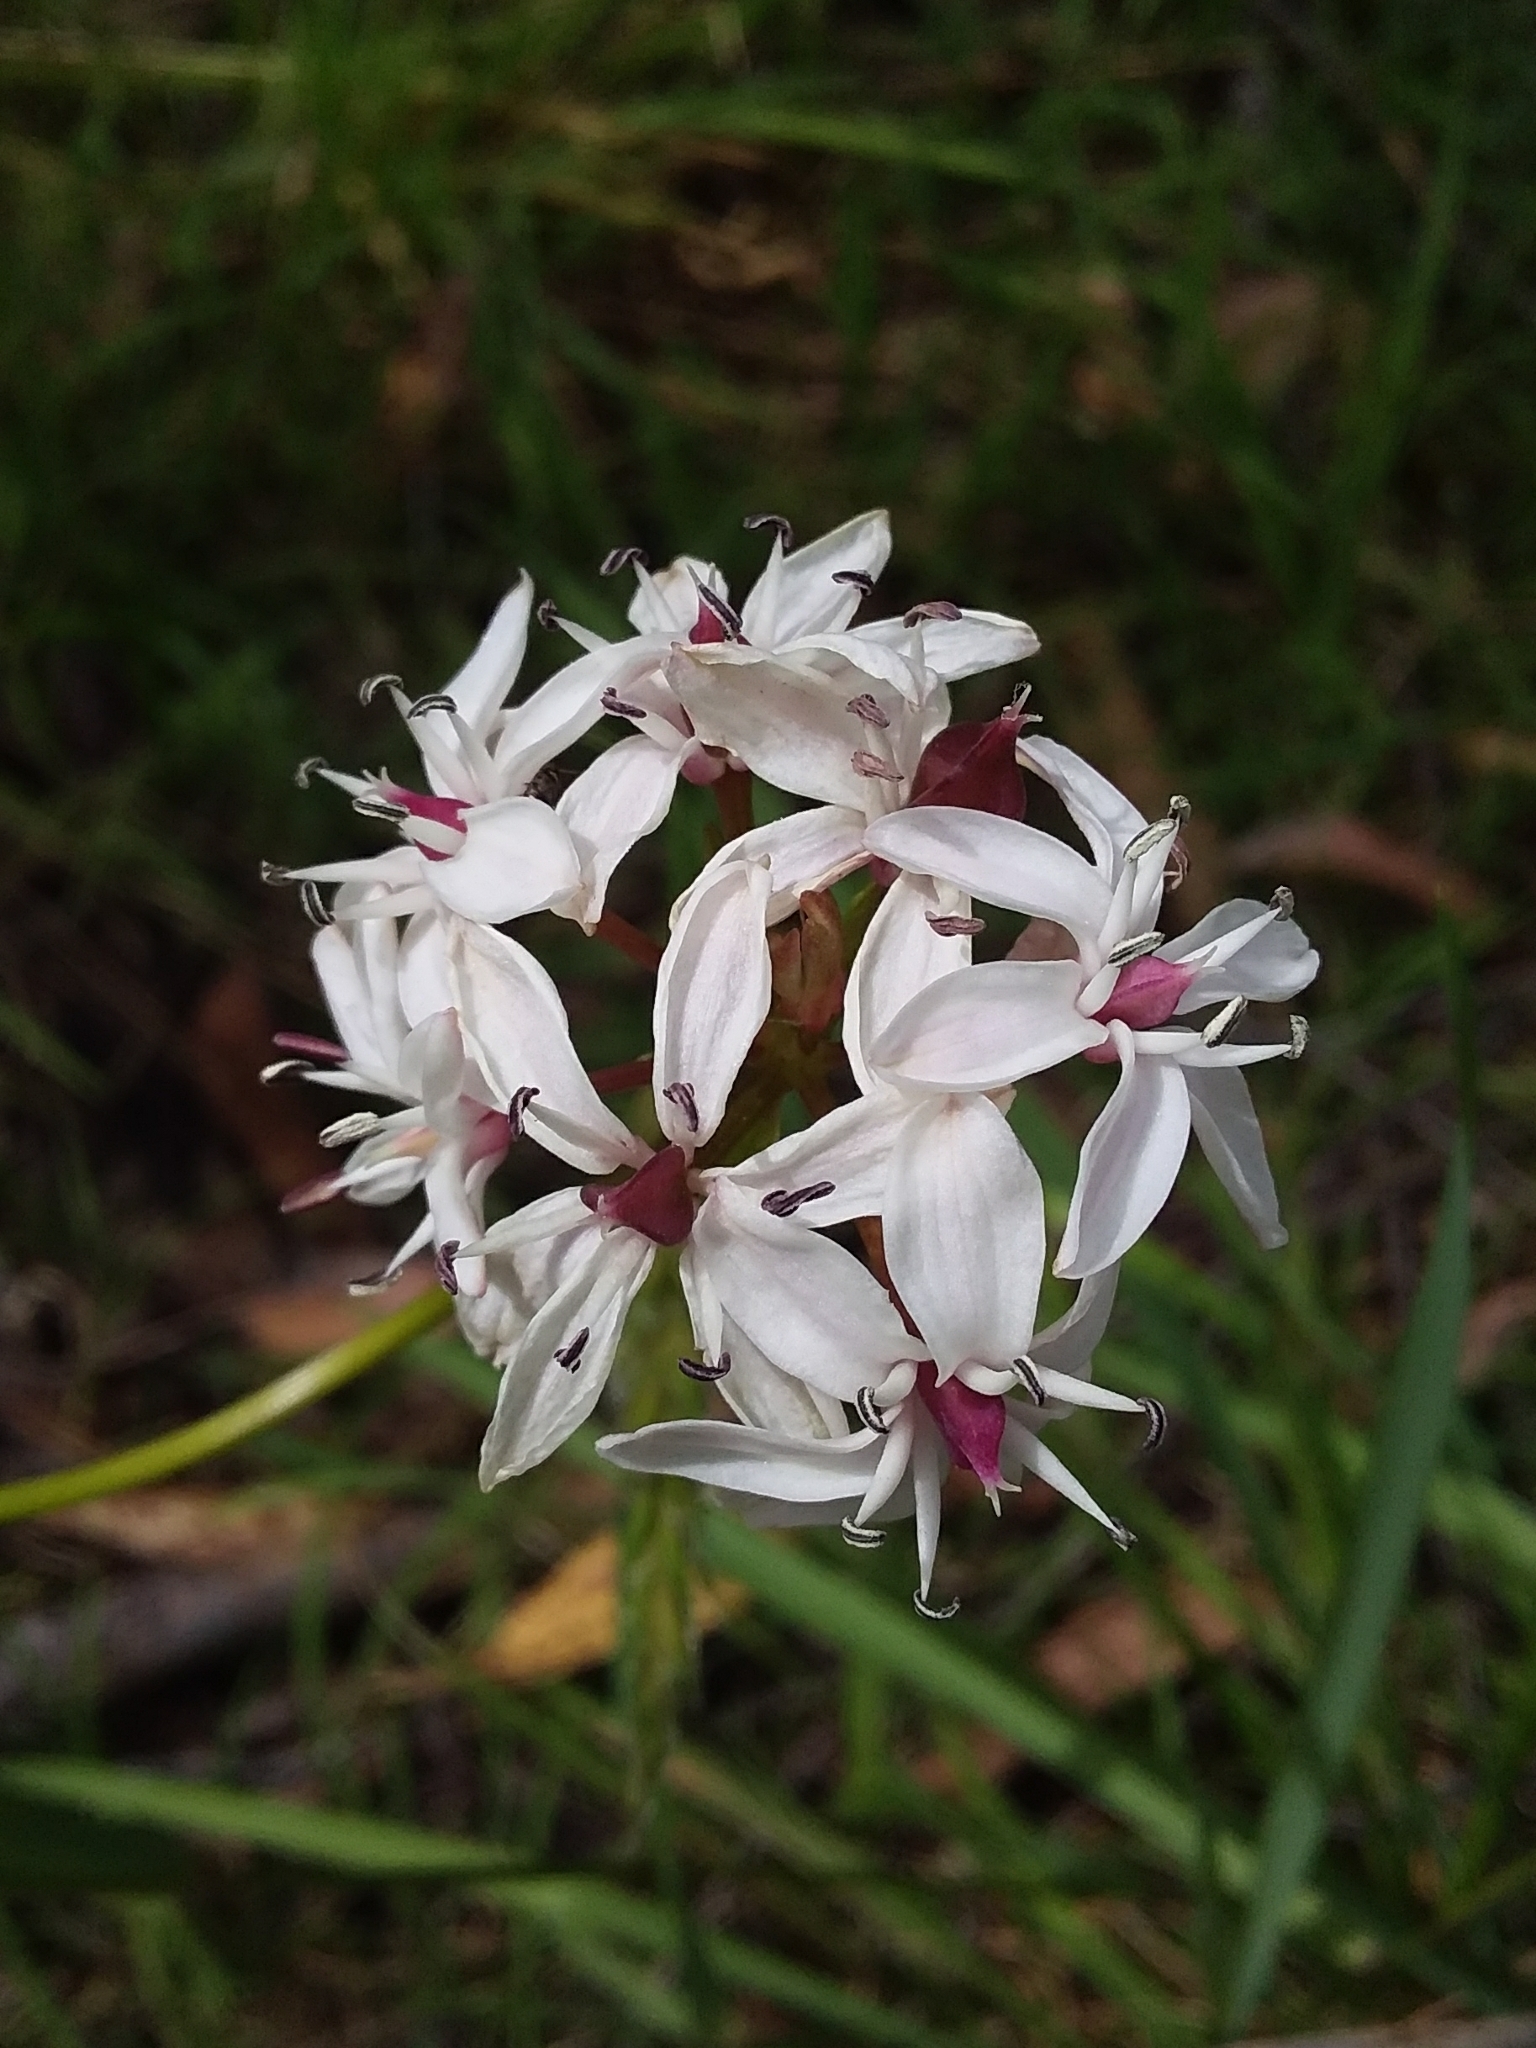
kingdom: Plantae
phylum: Tracheophyta
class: Liliopsida
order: Liliales
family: Colchicaceae
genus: Burchardia
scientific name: Burchardia umbellata
